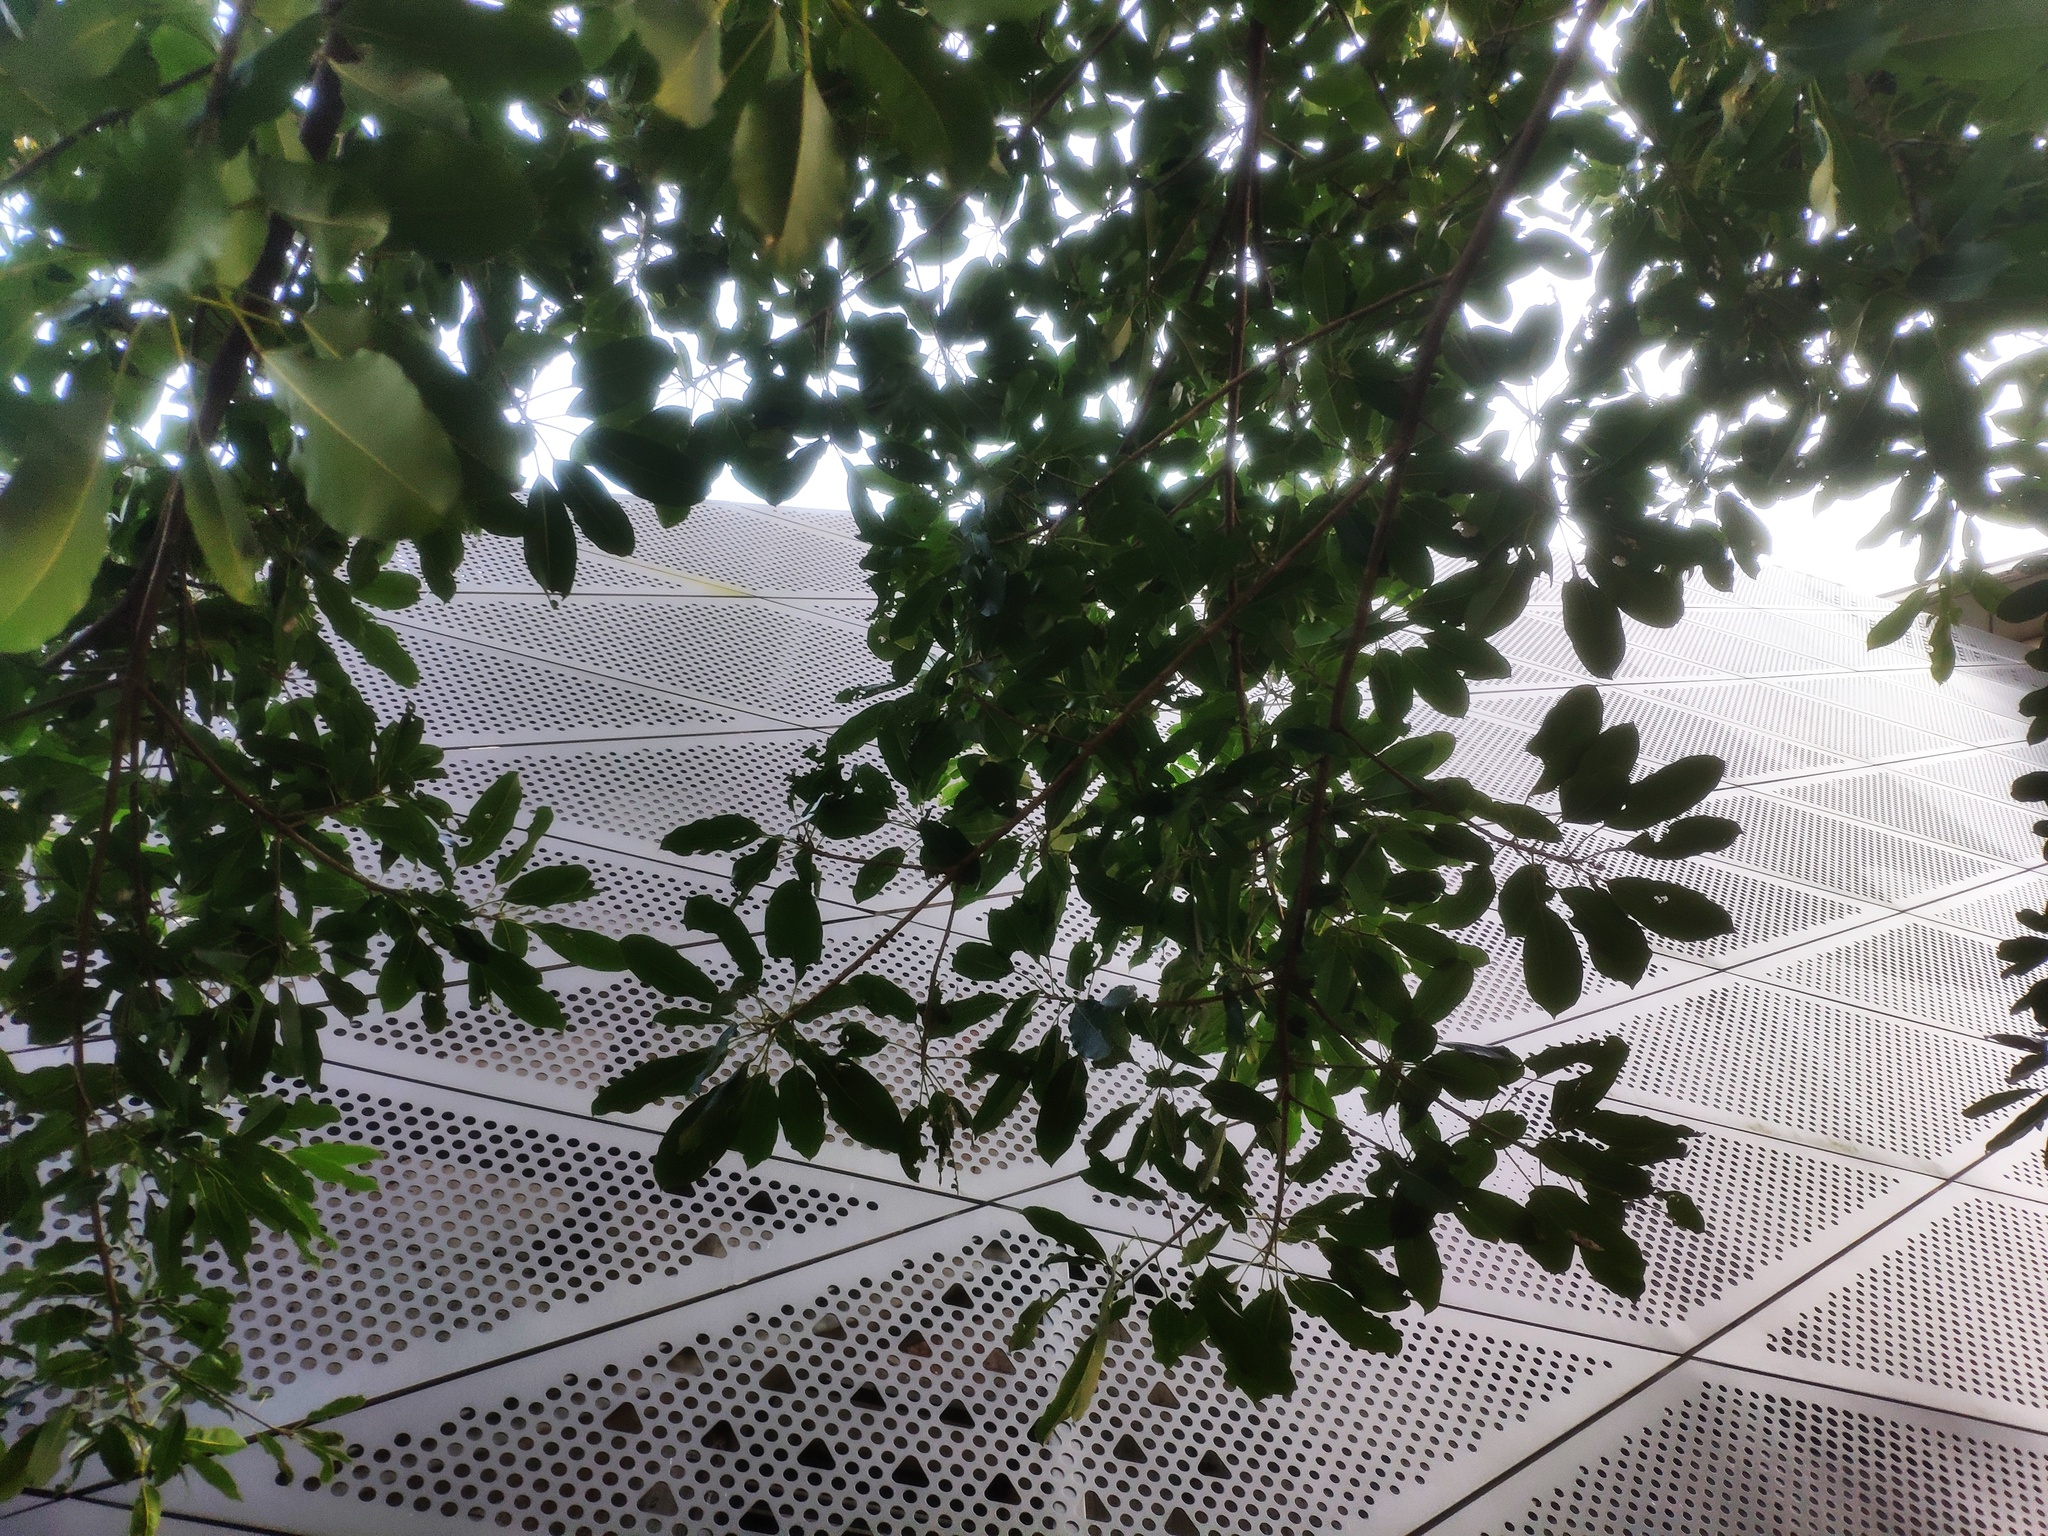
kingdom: Plantae
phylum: Tracheophyta
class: Magnoliopsida
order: Rosales
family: Moraceae
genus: Ficus
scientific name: Ficus subpisocarpa
